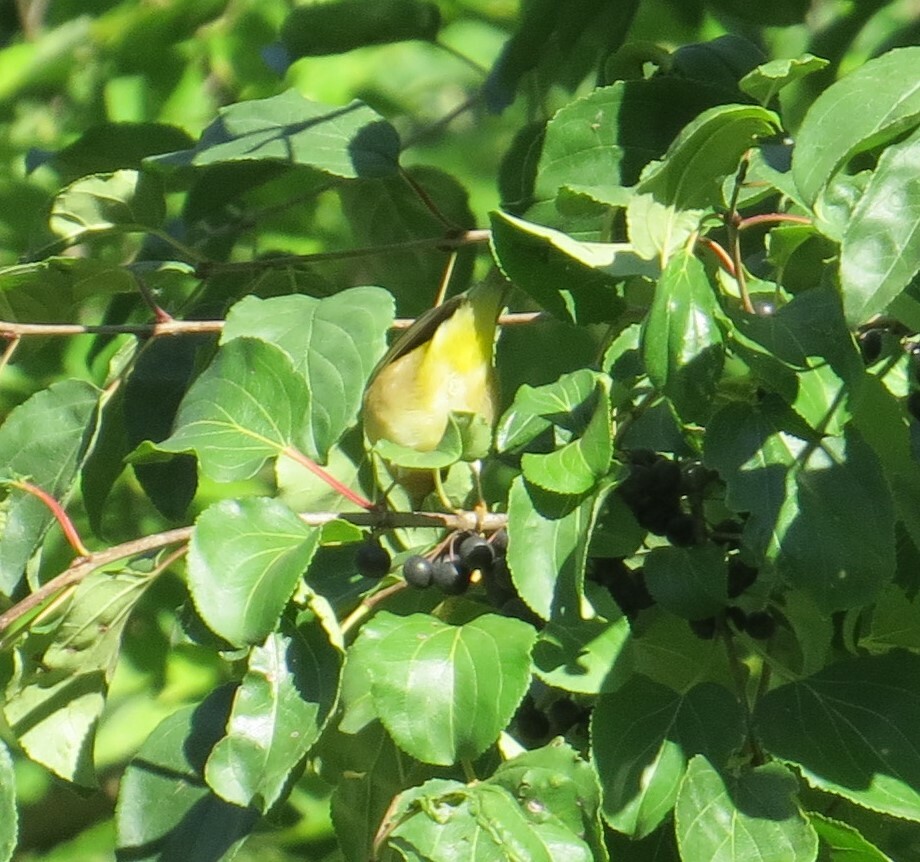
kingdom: Animalia
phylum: Chordata
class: Aves
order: Passeriformes
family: Parulidae
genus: Leiothlypis
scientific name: Leiothlypis ruficapilla
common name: Nashville warbler
